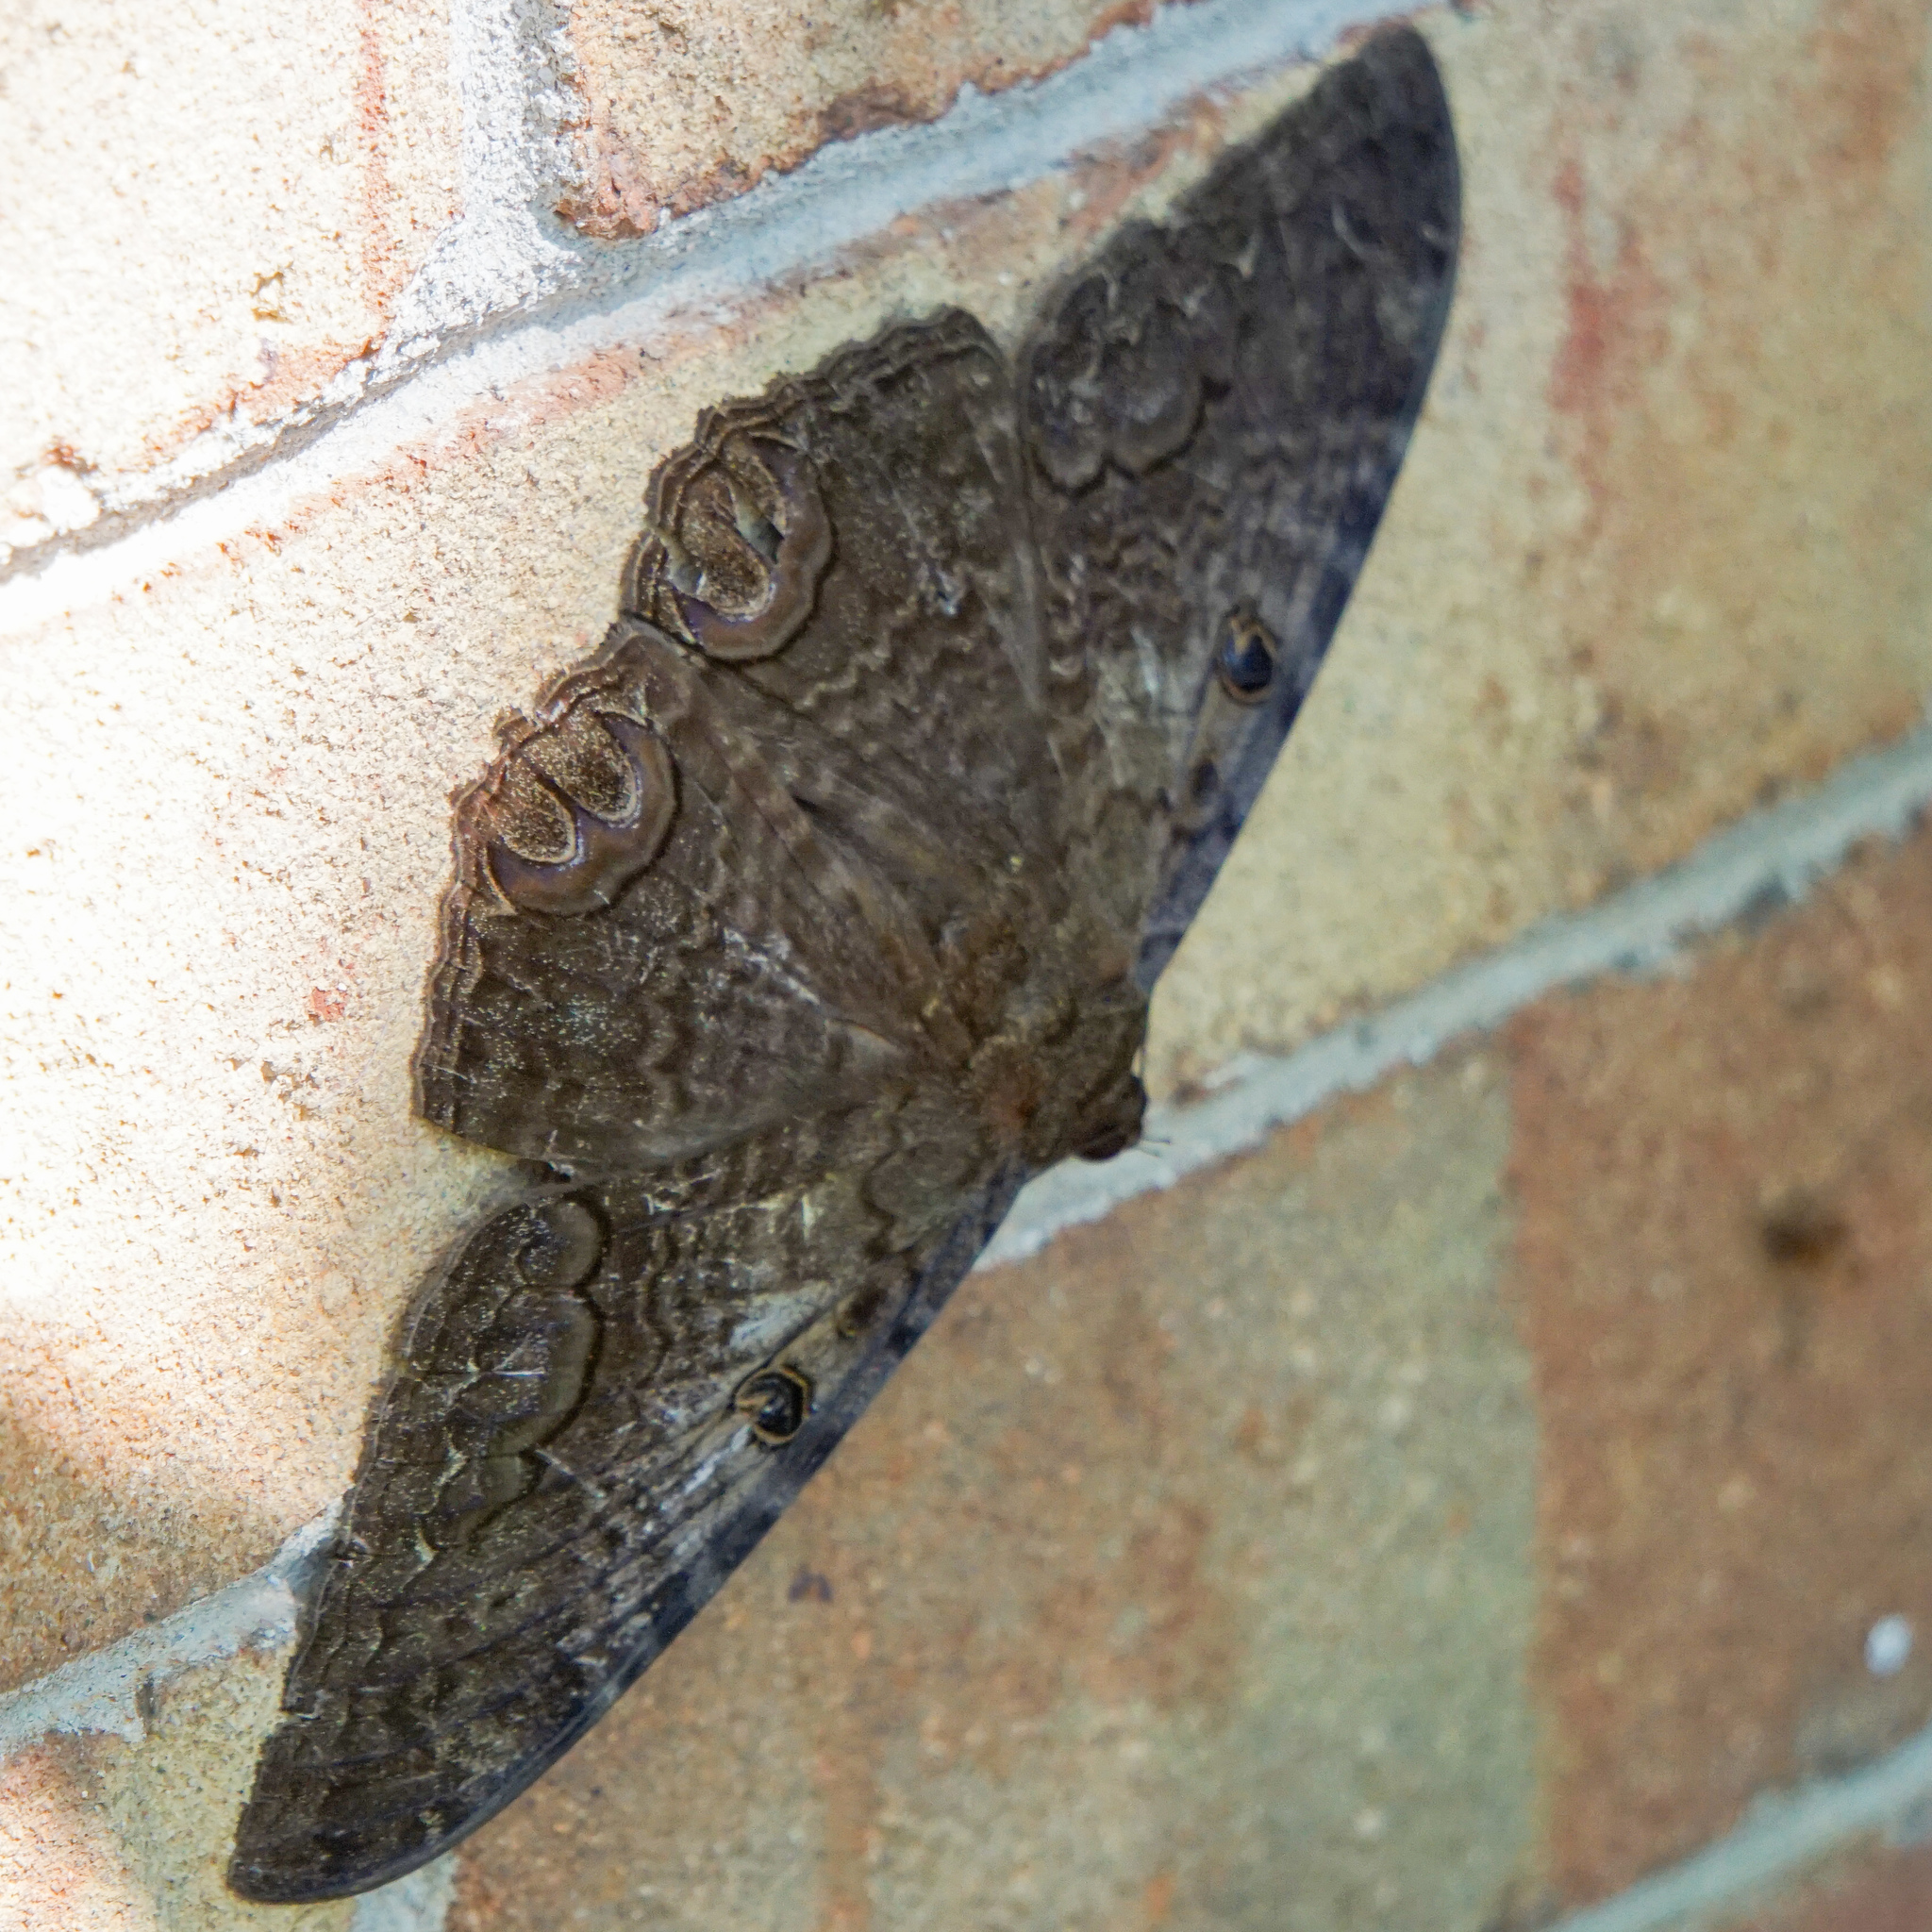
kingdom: Animalia
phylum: Arthropoda
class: Insecta
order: Lepidoptera
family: Erebidae
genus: Ascalapha
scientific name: Ascalapha odorata
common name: Black witch
